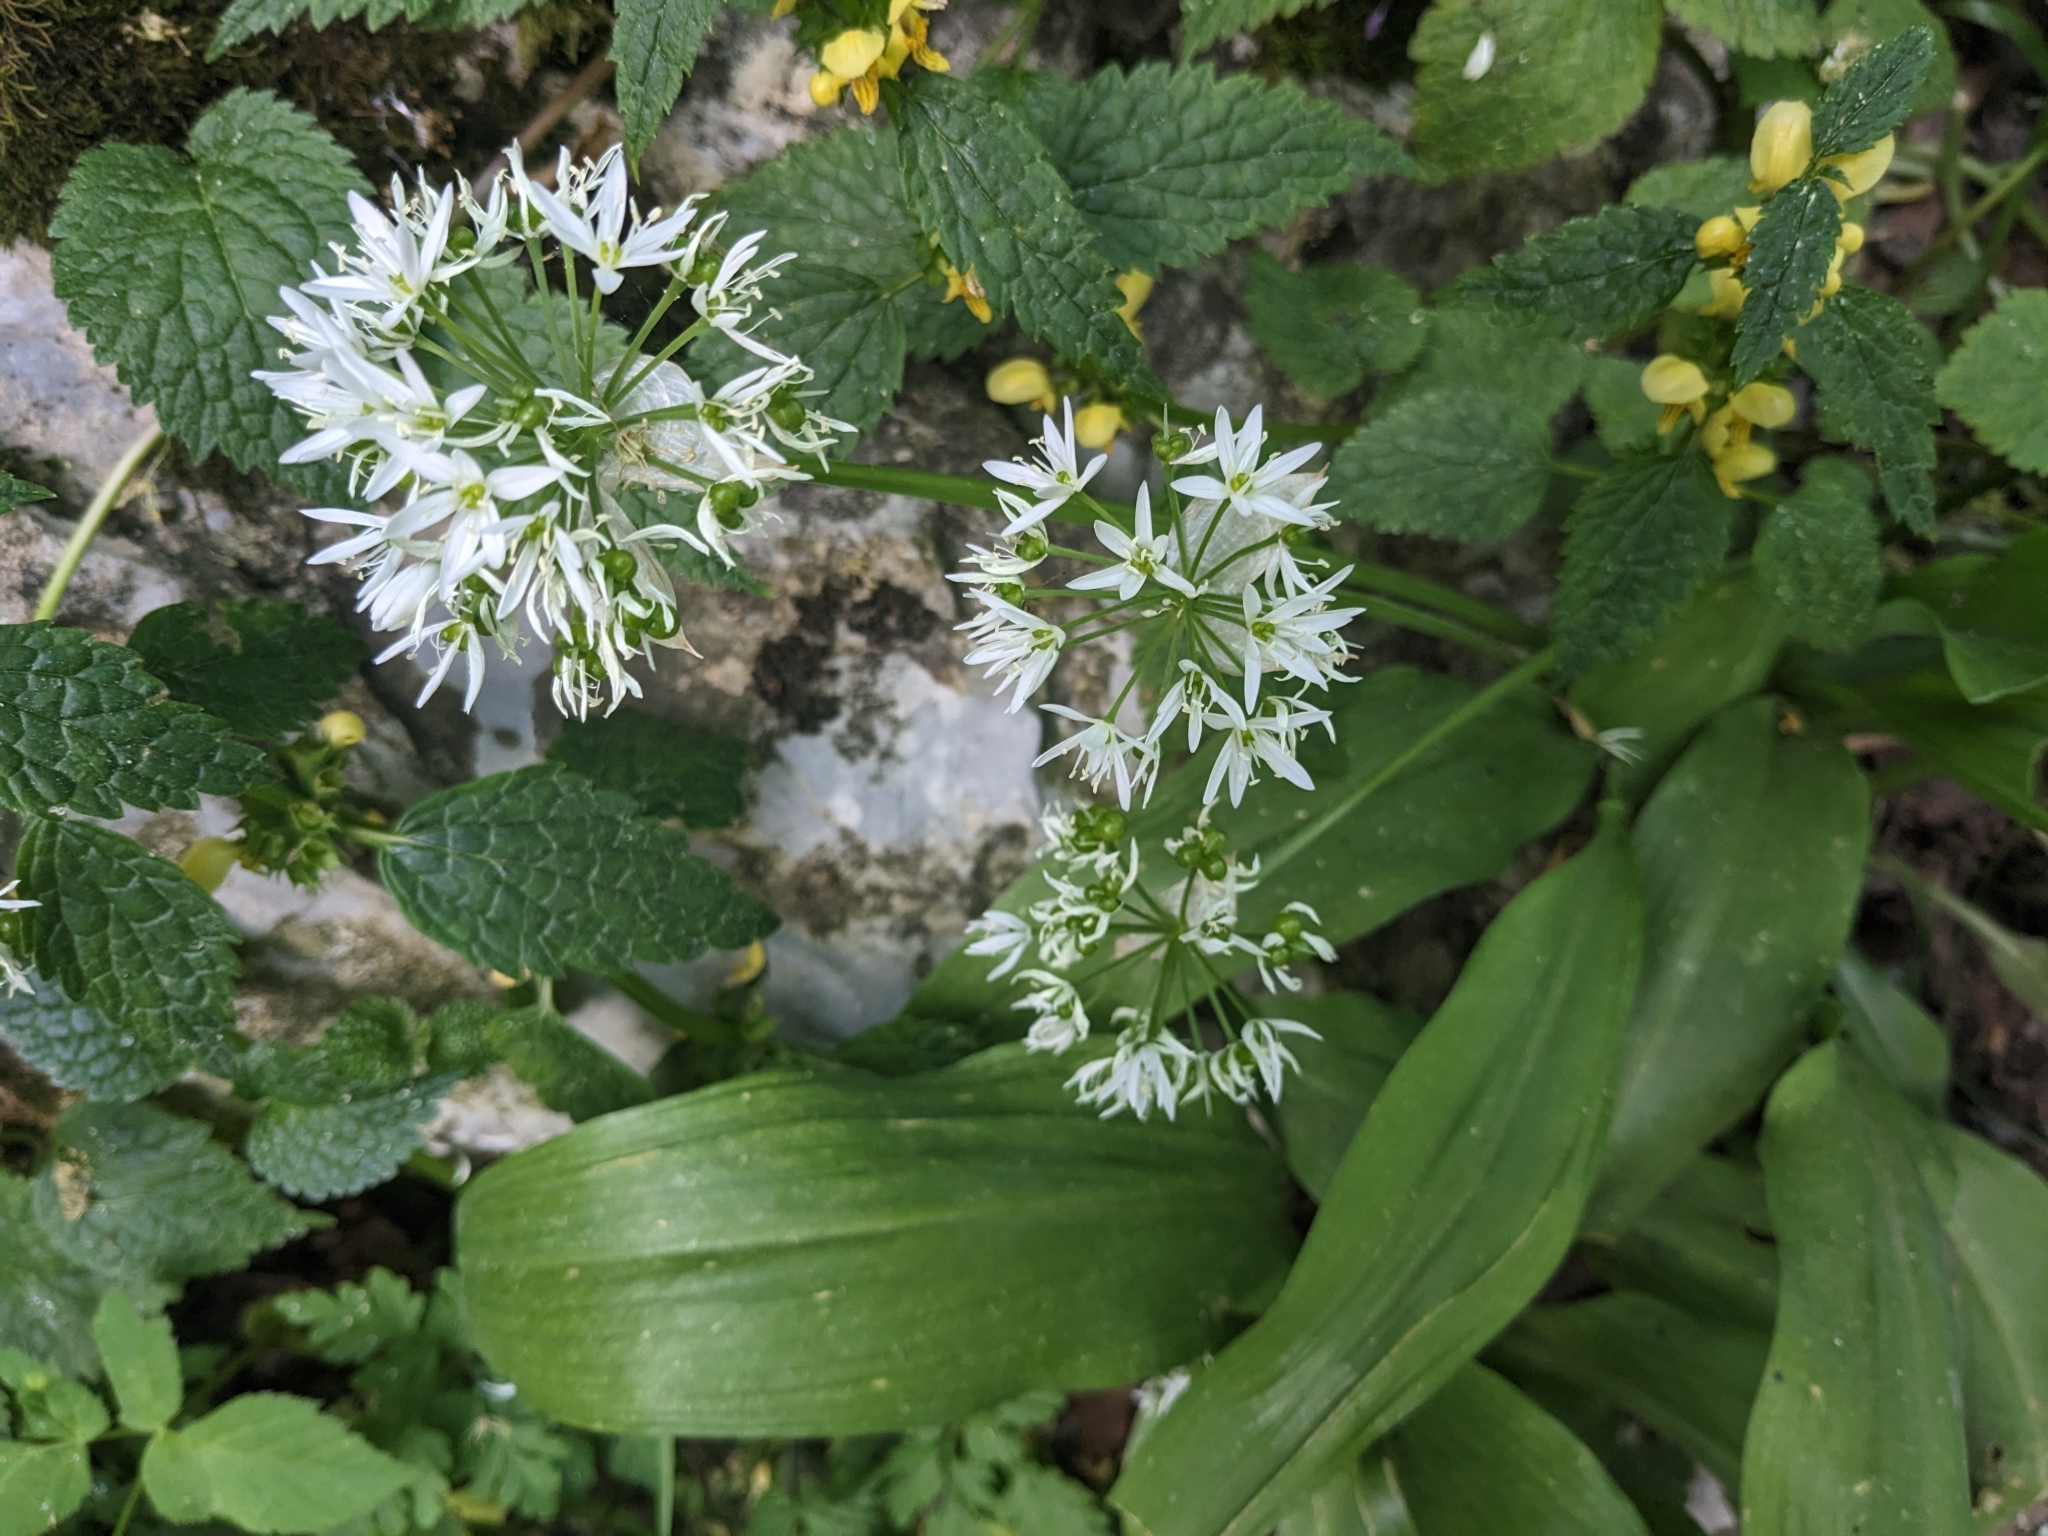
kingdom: Plantae
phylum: Tracheophyta
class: Liliopsida
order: Asparagales
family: Amaryllidaceae
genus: Allium
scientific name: Allium ursinum
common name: Ramsons
